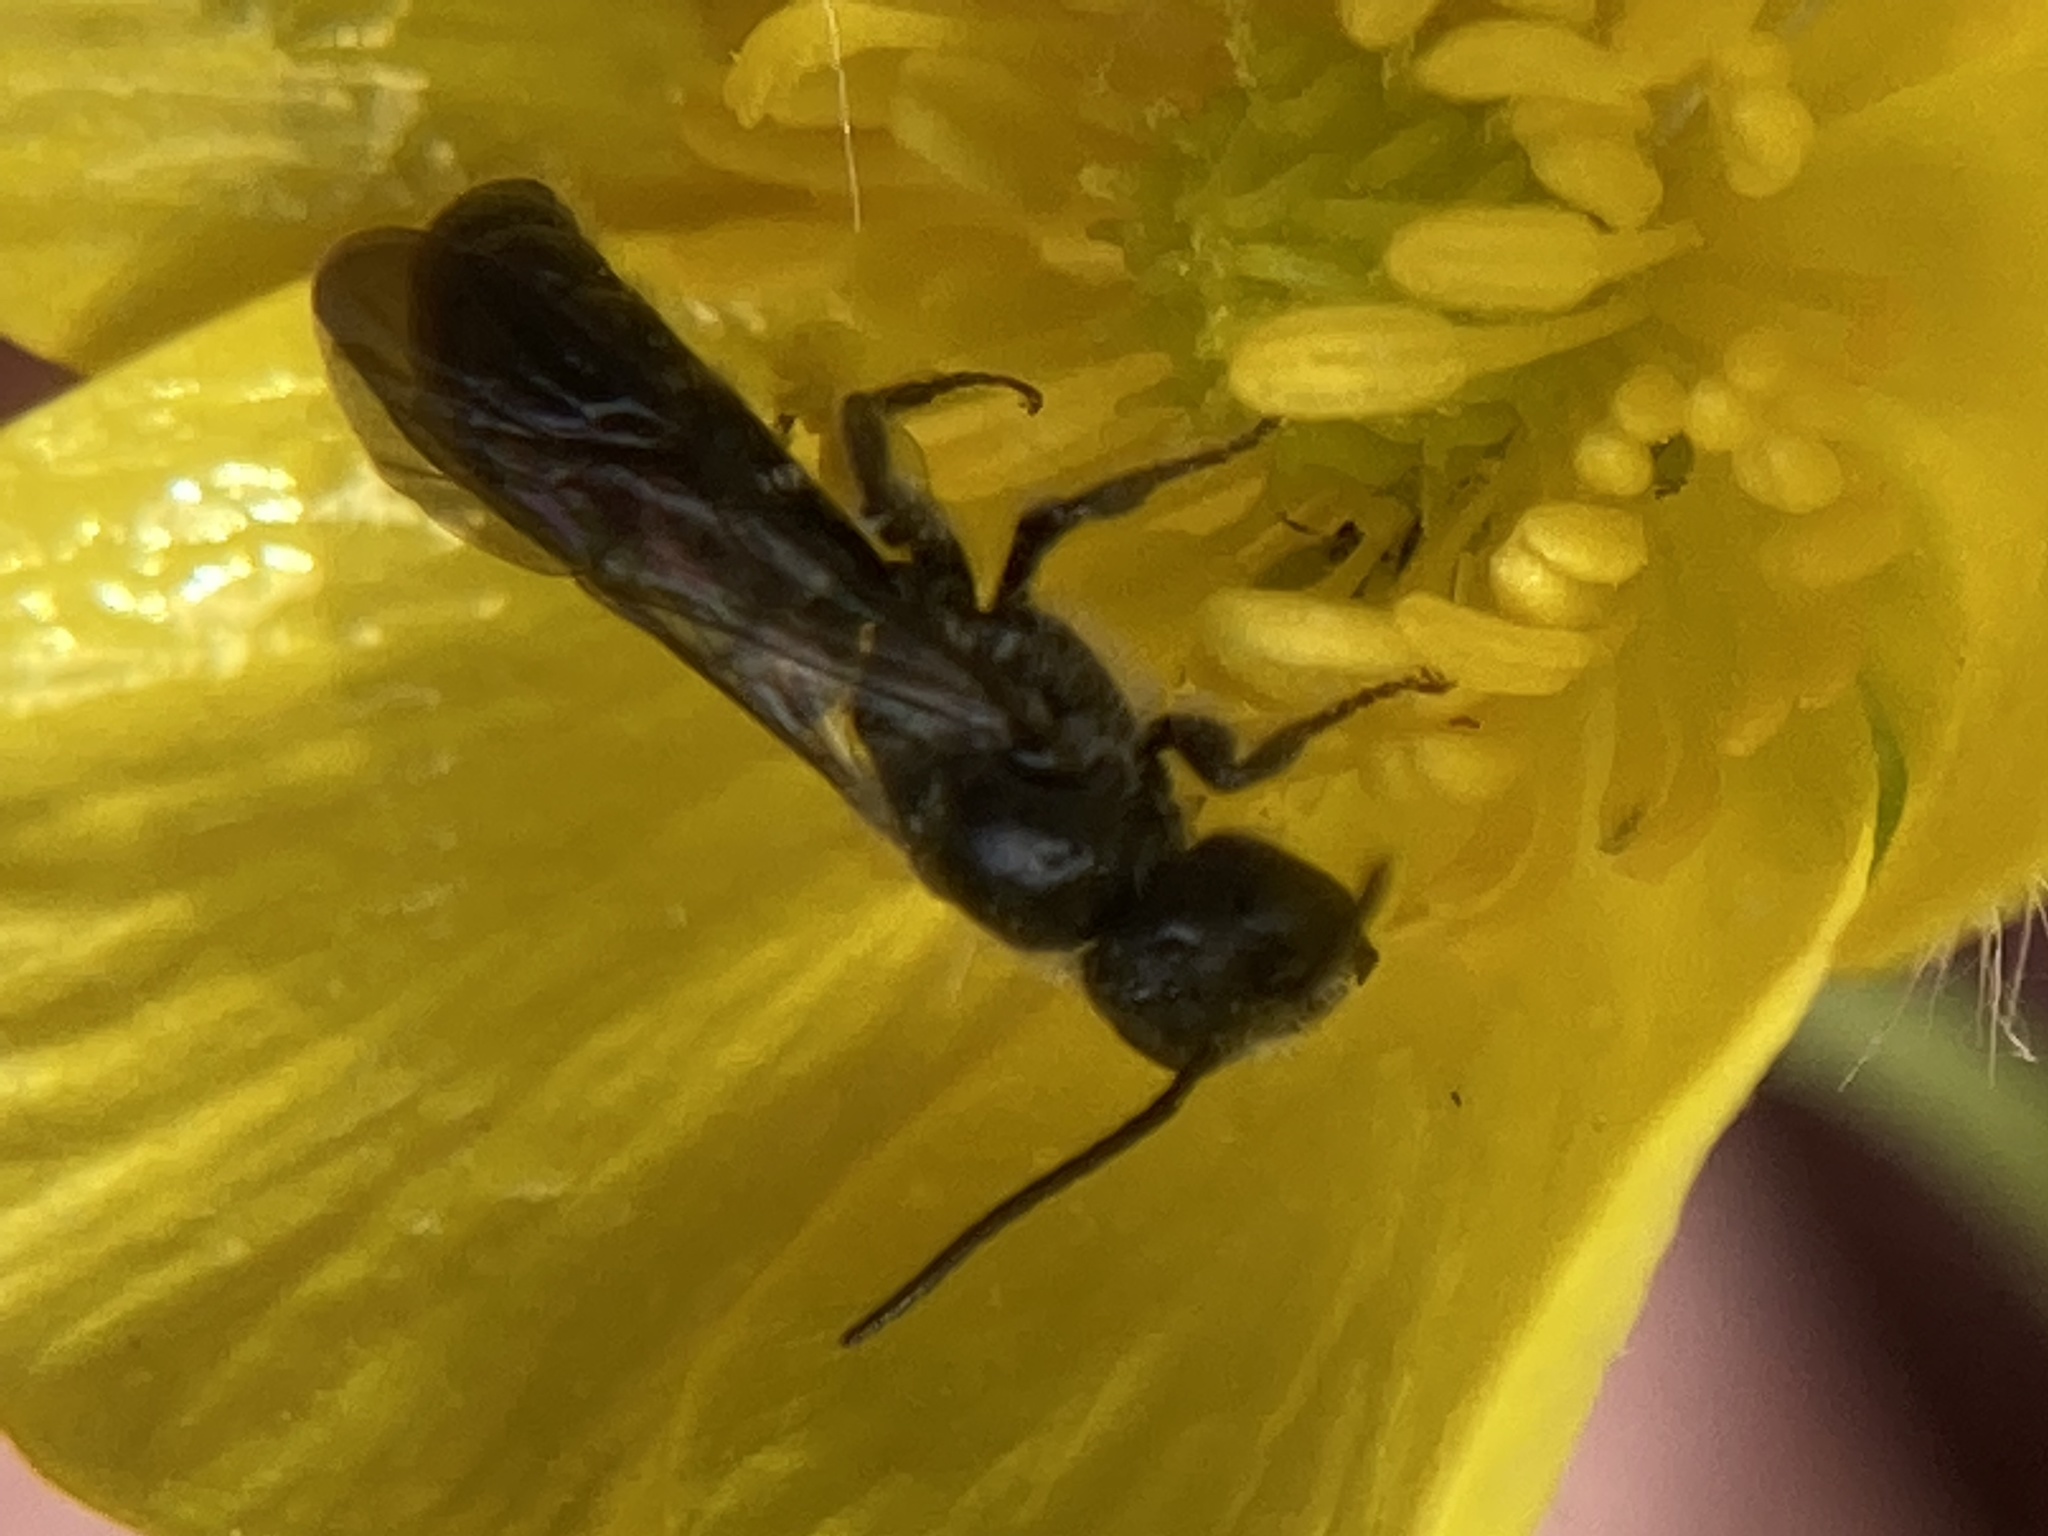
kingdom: Animalia
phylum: Arthropoda
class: Insecta
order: Hymenoptera
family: Megachilidae
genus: Chelostoma
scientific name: Chelostoma
